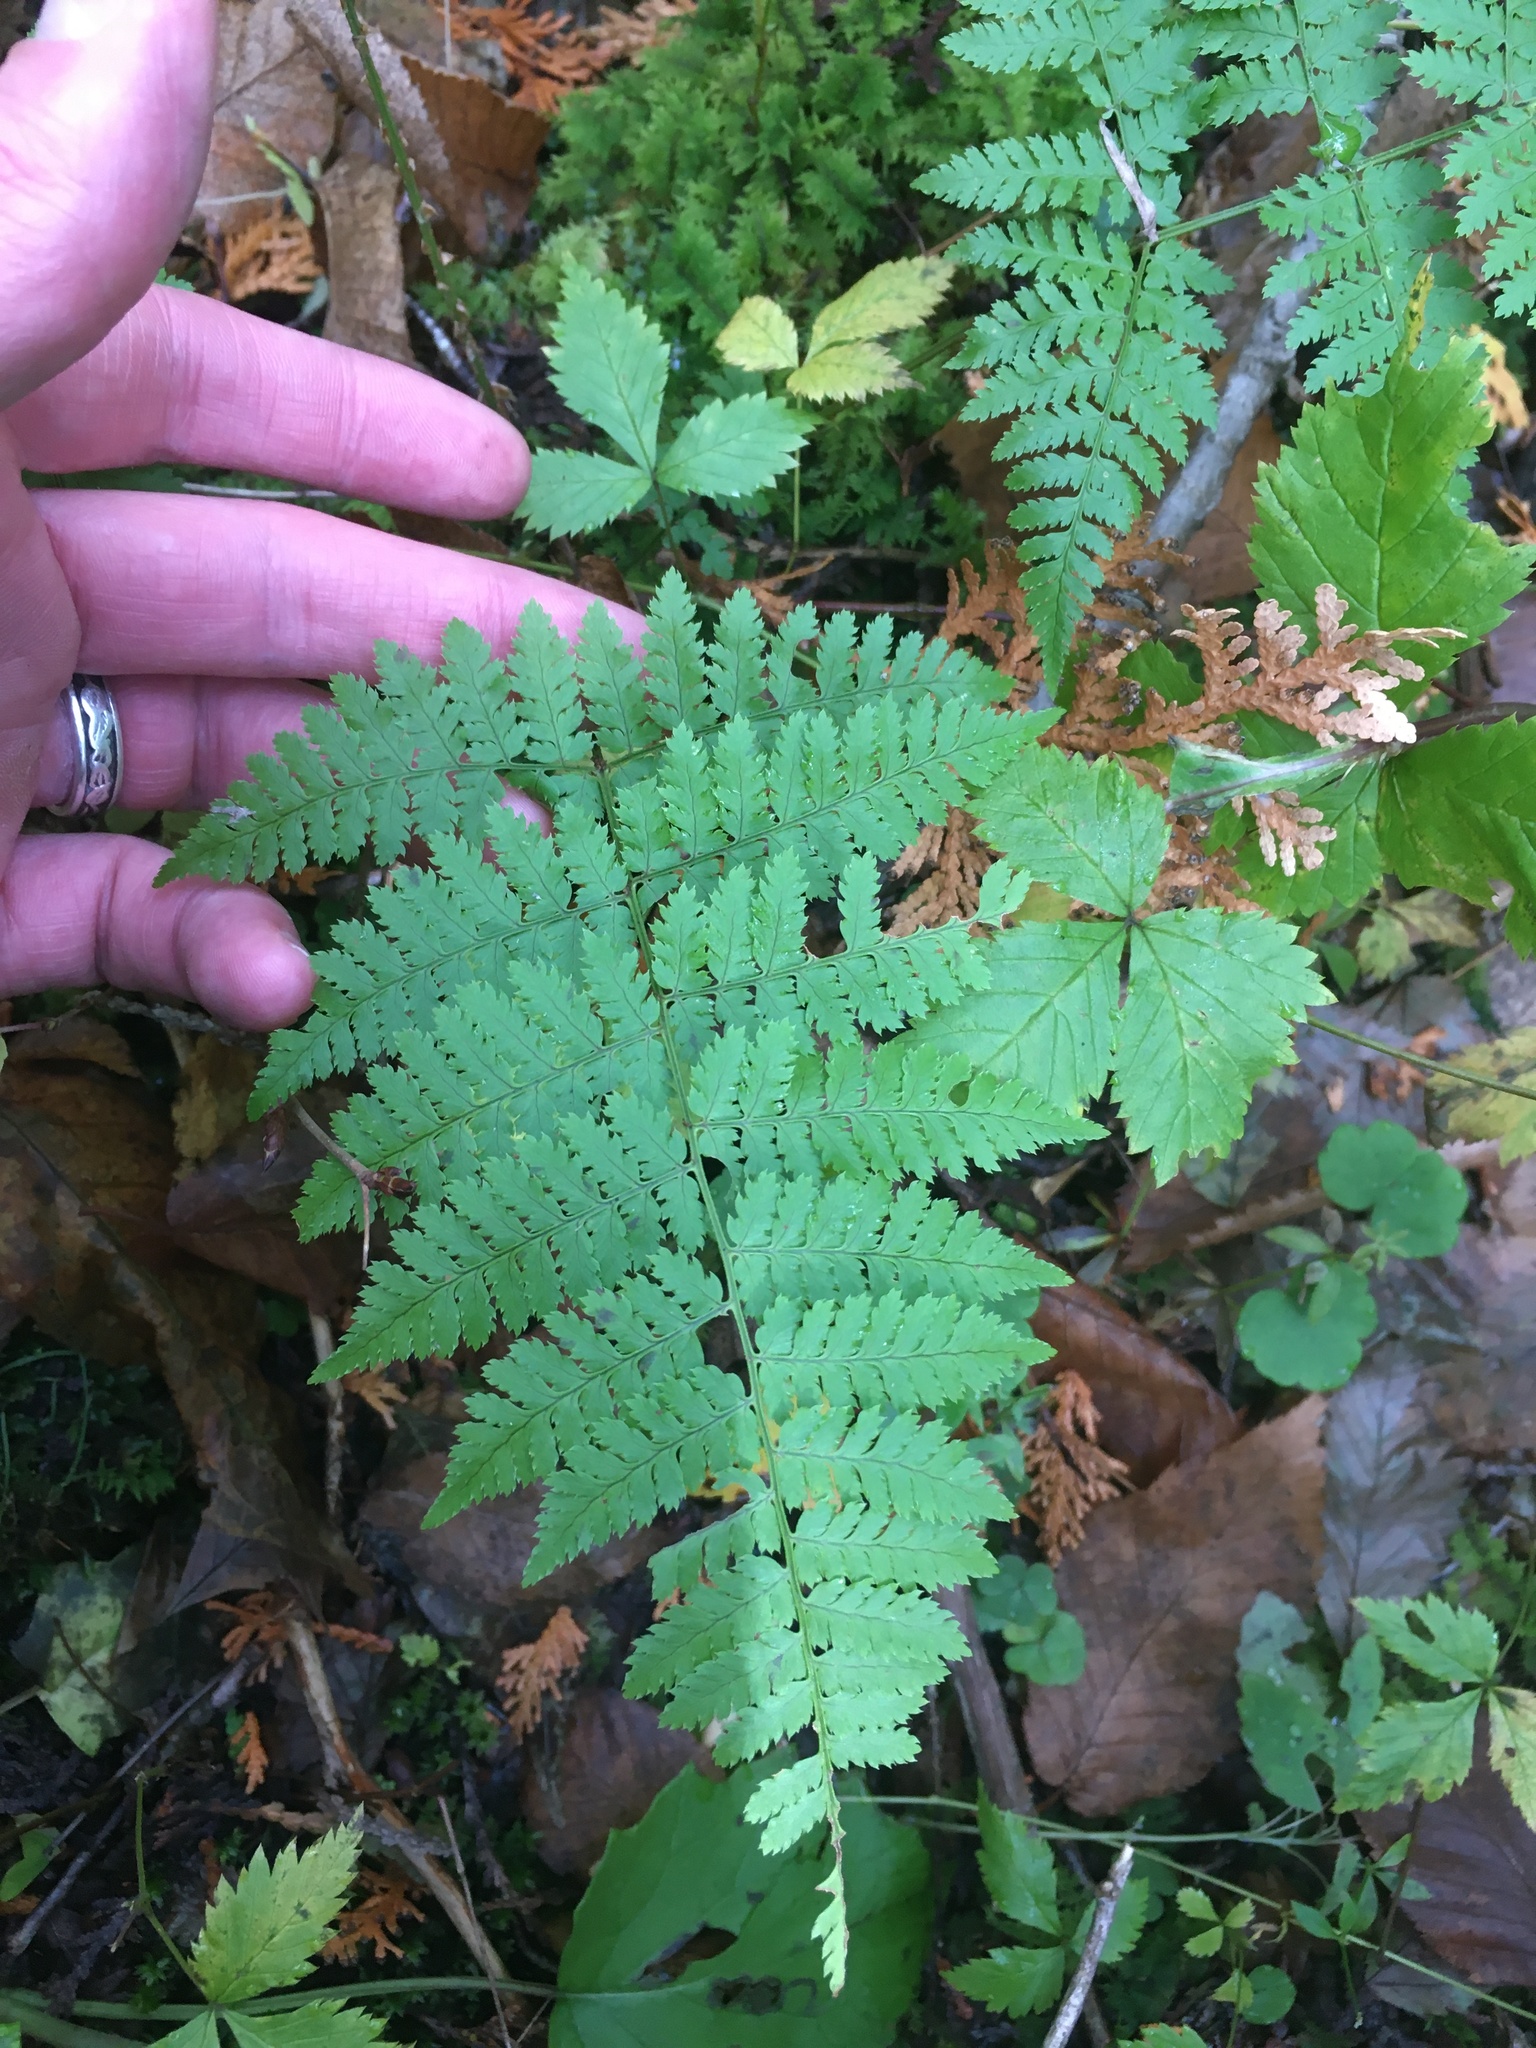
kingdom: Plantae
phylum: Tracheophyta
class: Polypodiopsida
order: Polypodiales
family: Dryopteridaceae
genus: Dryopteris
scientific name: Dryopteris intermedia
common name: Evergreen wood fern
